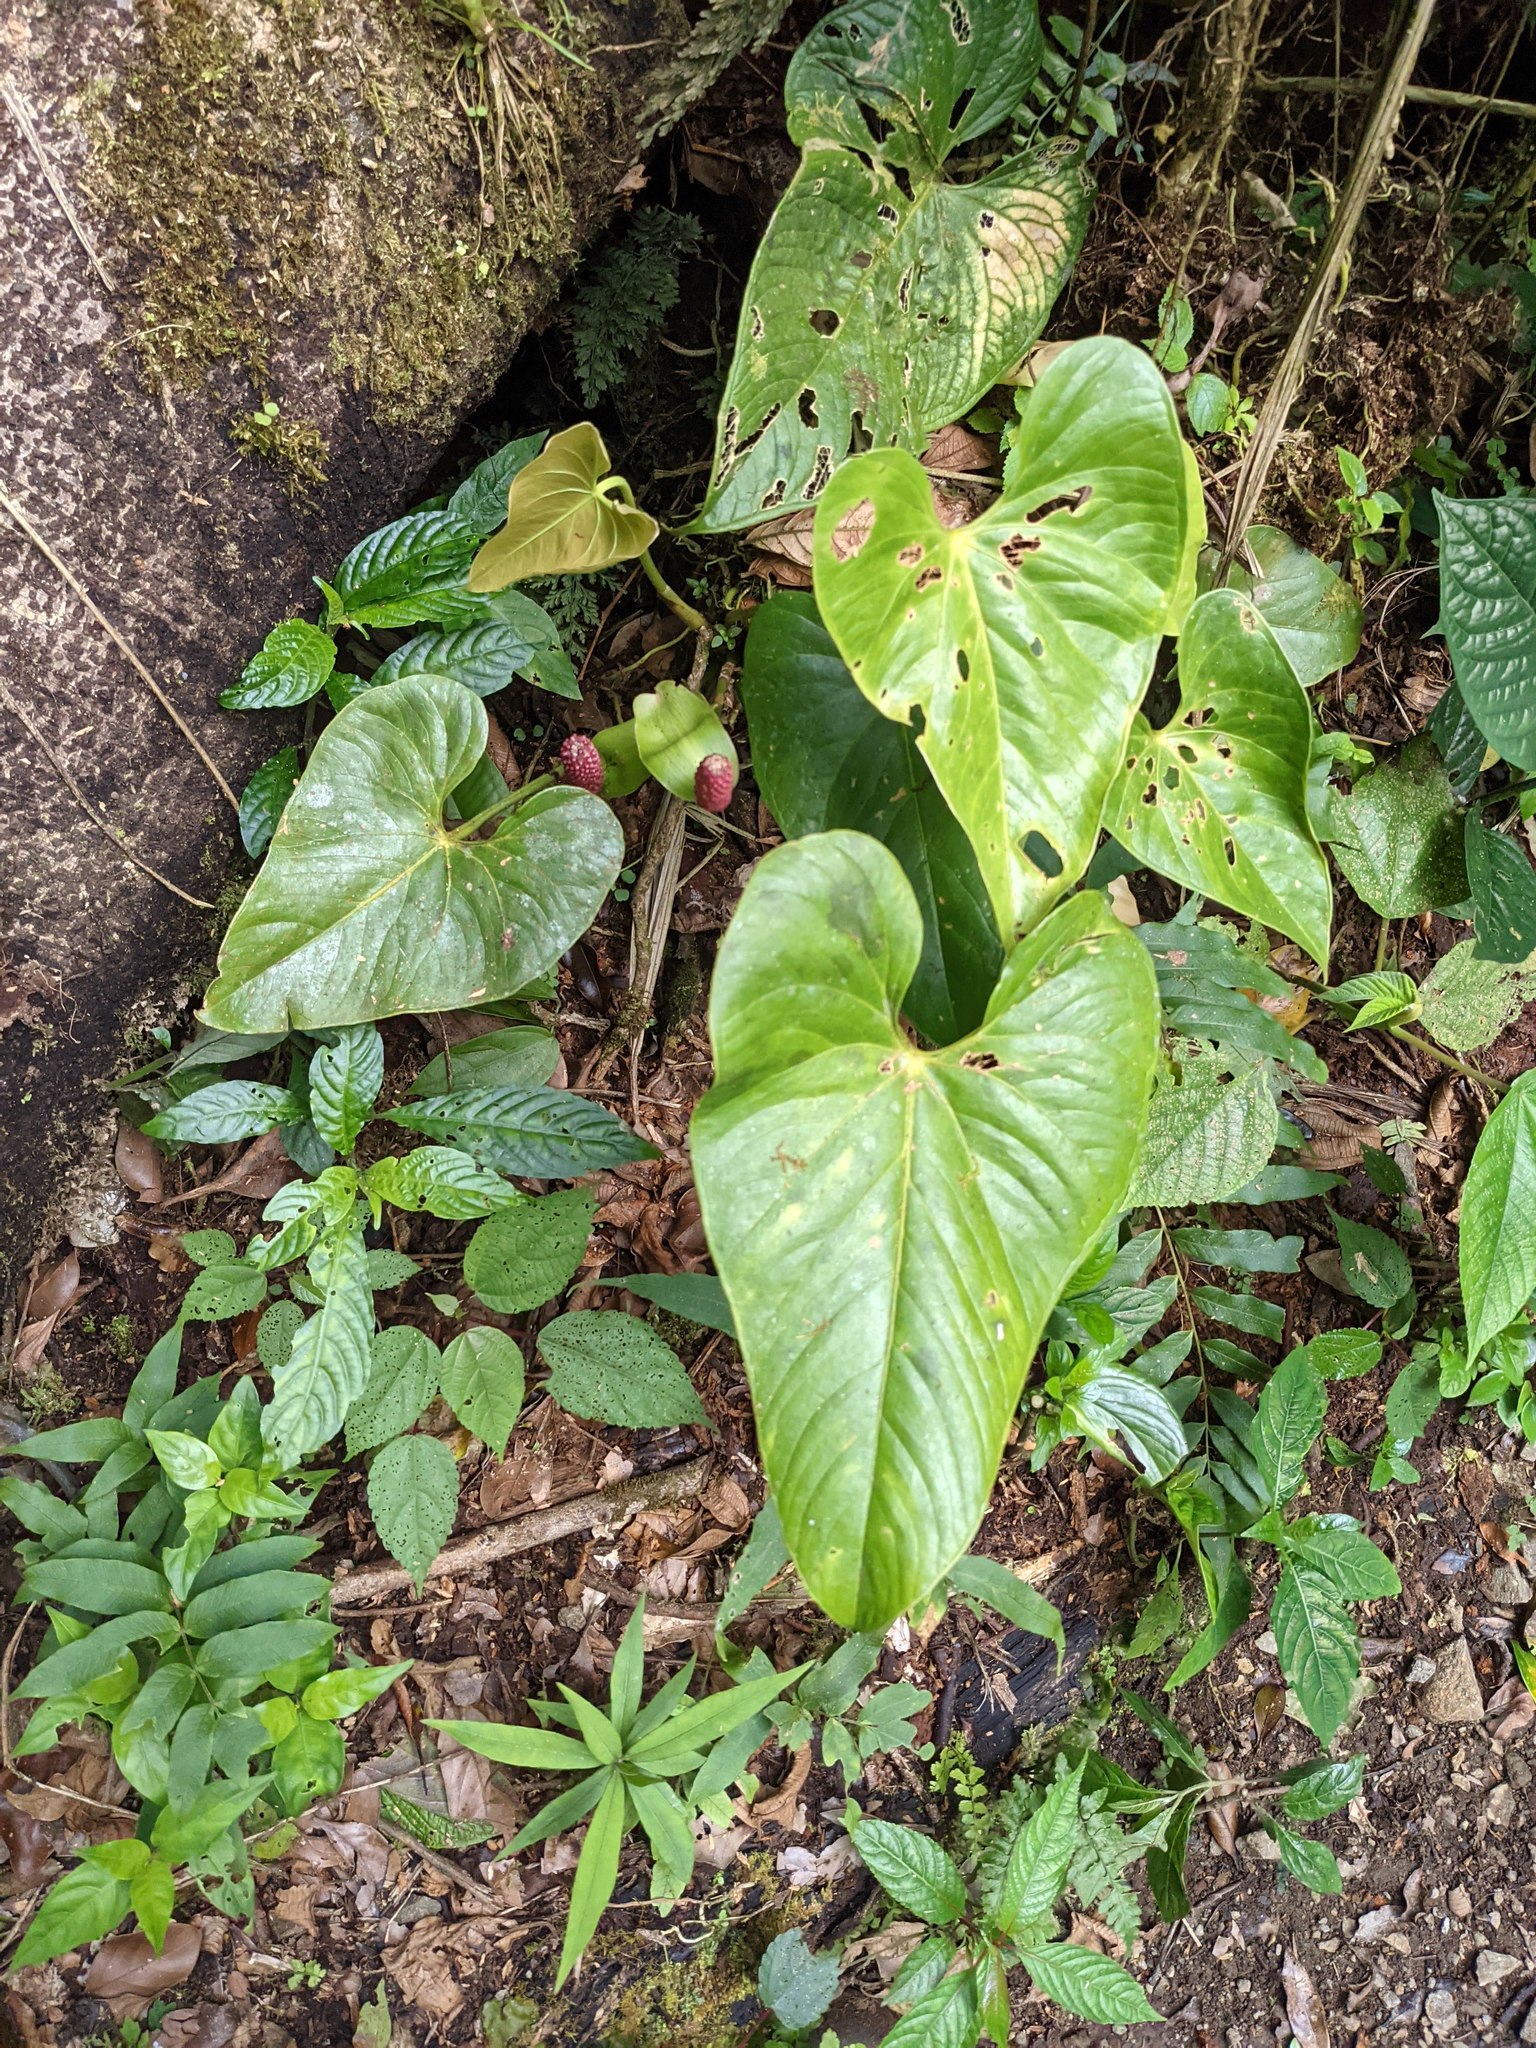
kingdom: Plantae
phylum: Tracheophyta
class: Liliopsida
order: Alismatales
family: Araceae
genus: Anthurium
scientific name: Anthurium obtusilobum
